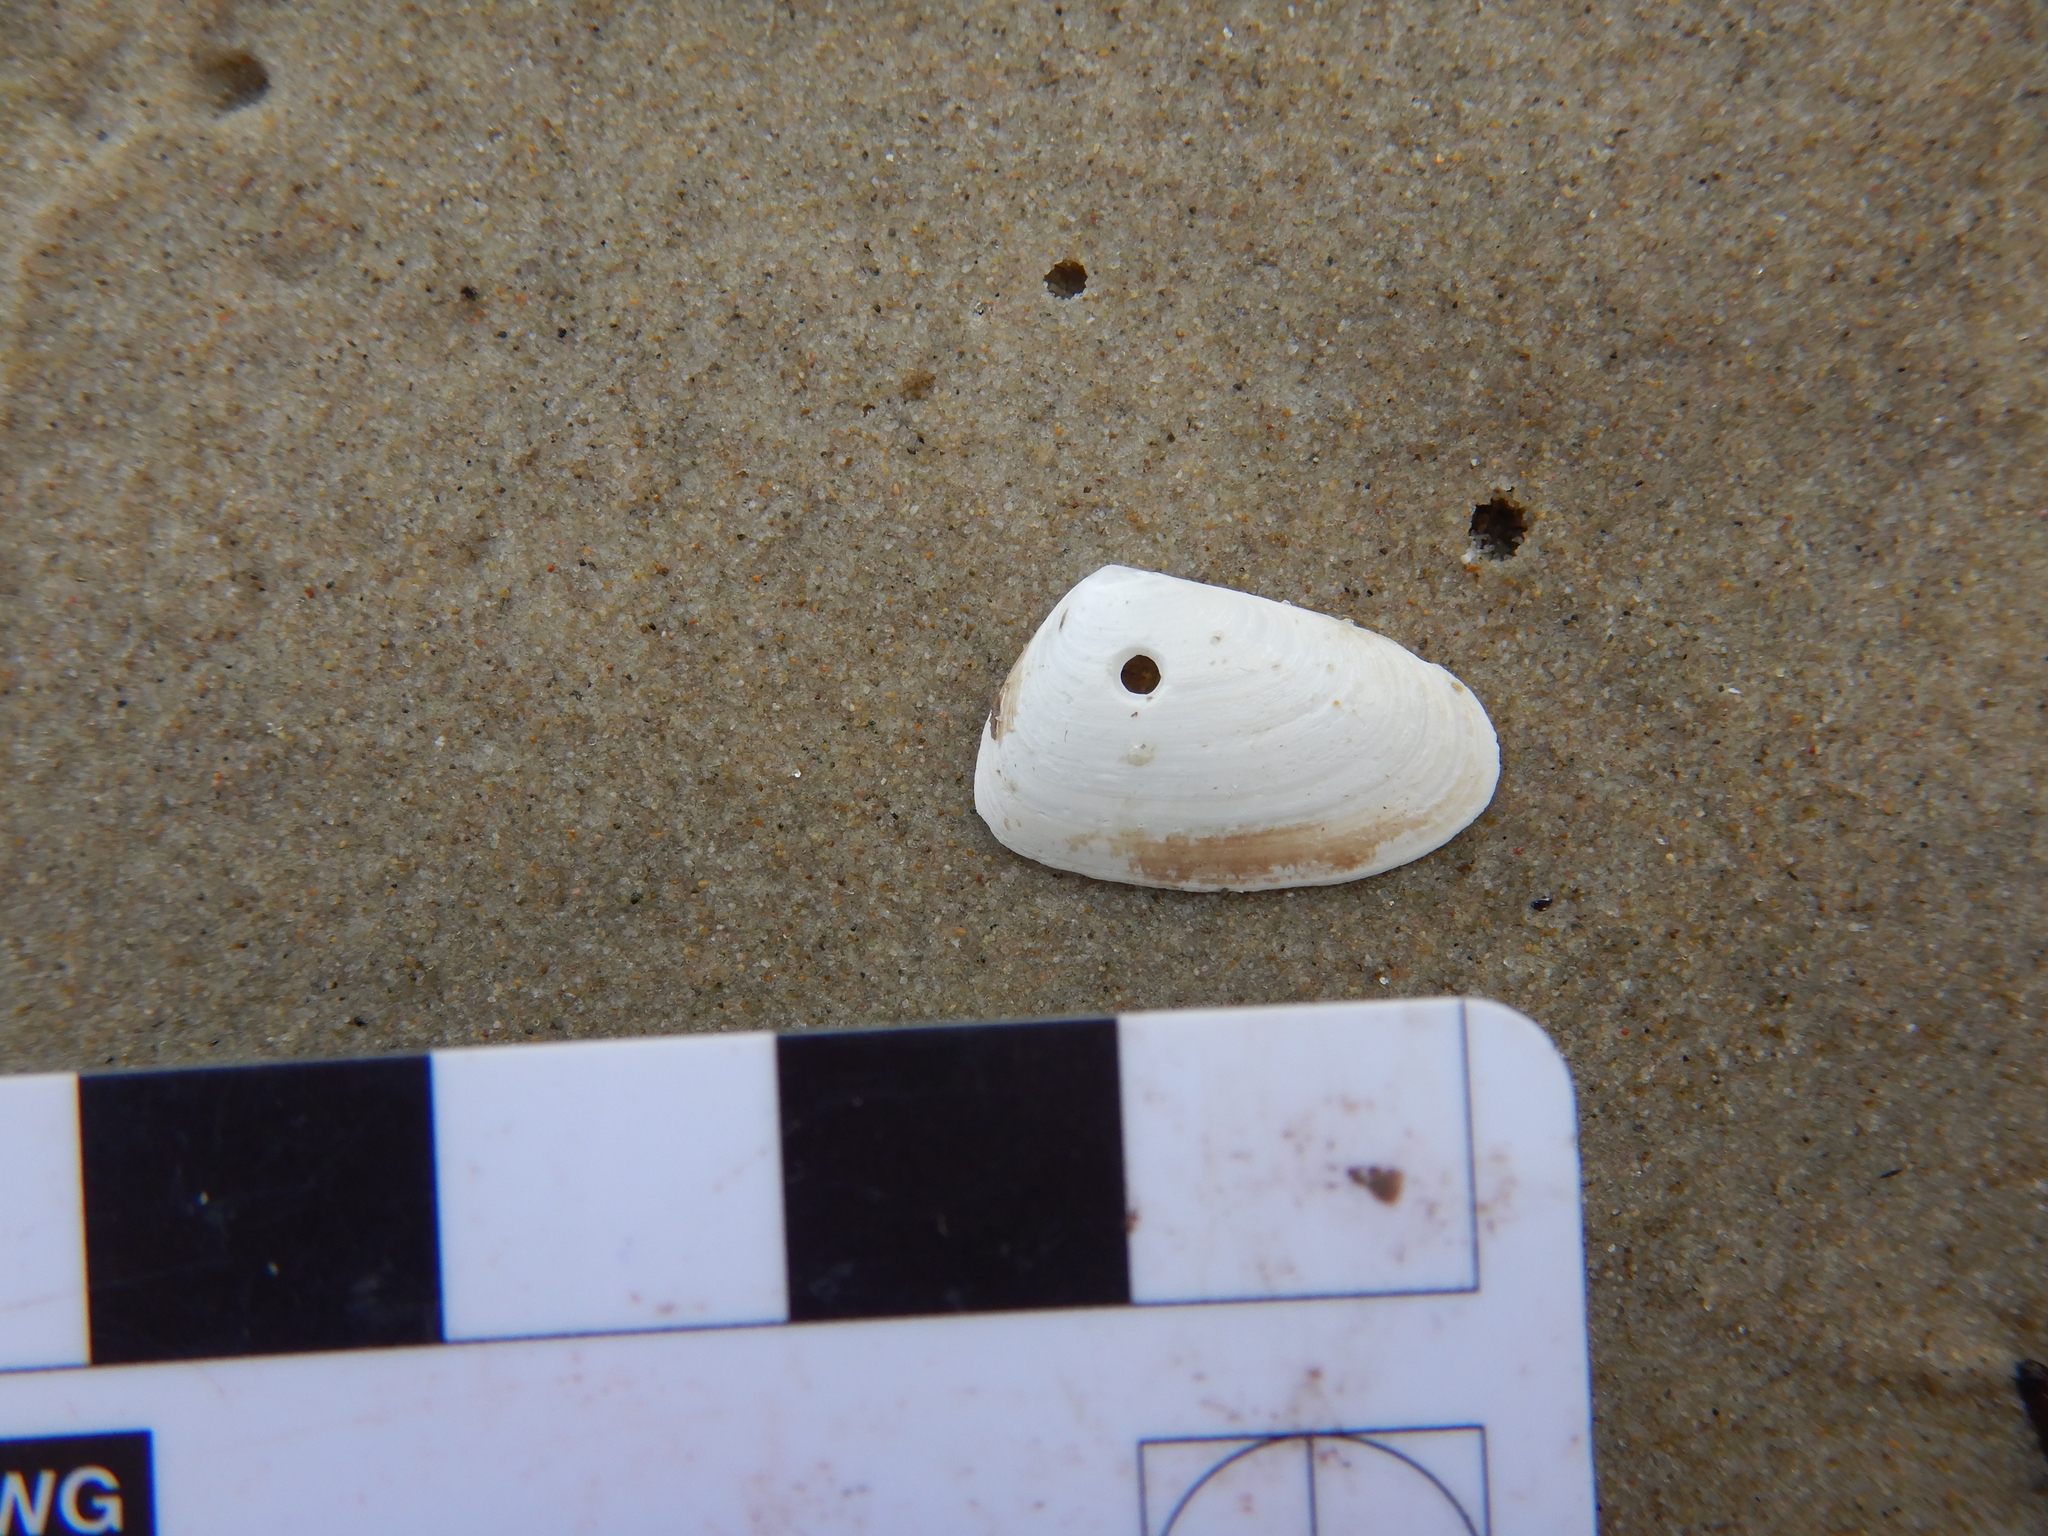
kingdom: Animalia
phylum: Mollusca
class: Bivalvia
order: Venerida
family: Mesodesmatidae
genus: Paphies
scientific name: Paphies angusta
